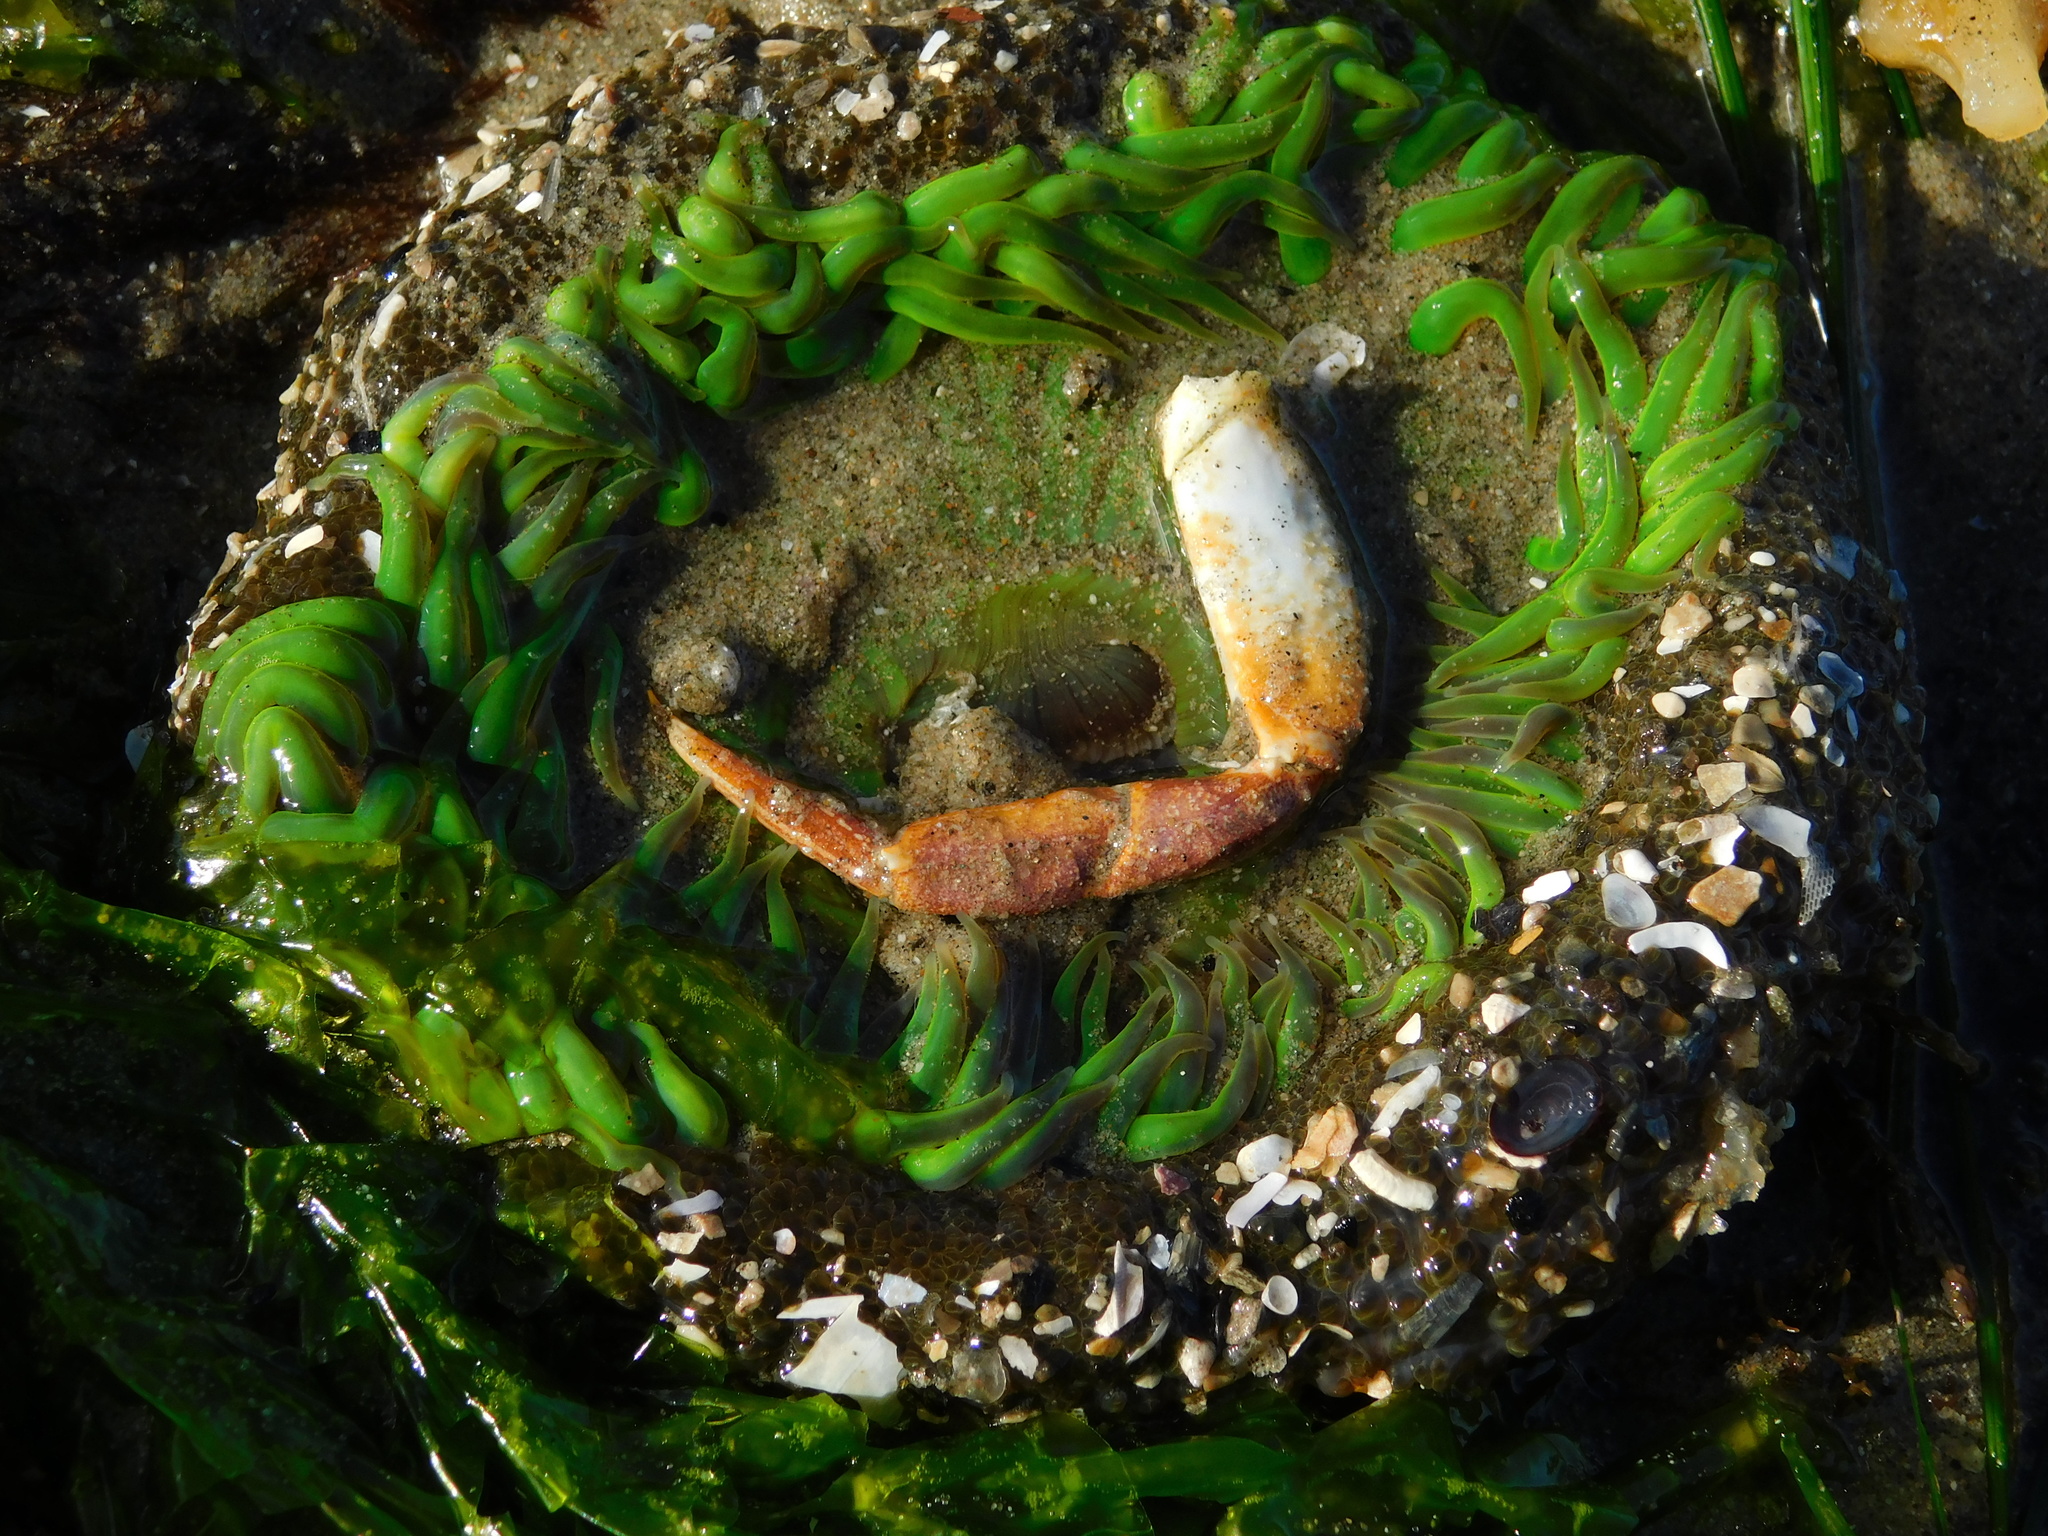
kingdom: Animalia
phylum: Cnidaria
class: Anthozoa
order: Actiniaria
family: Actiniidae
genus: Anthopleura
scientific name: Anthopleura sola
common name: Sun anemone
